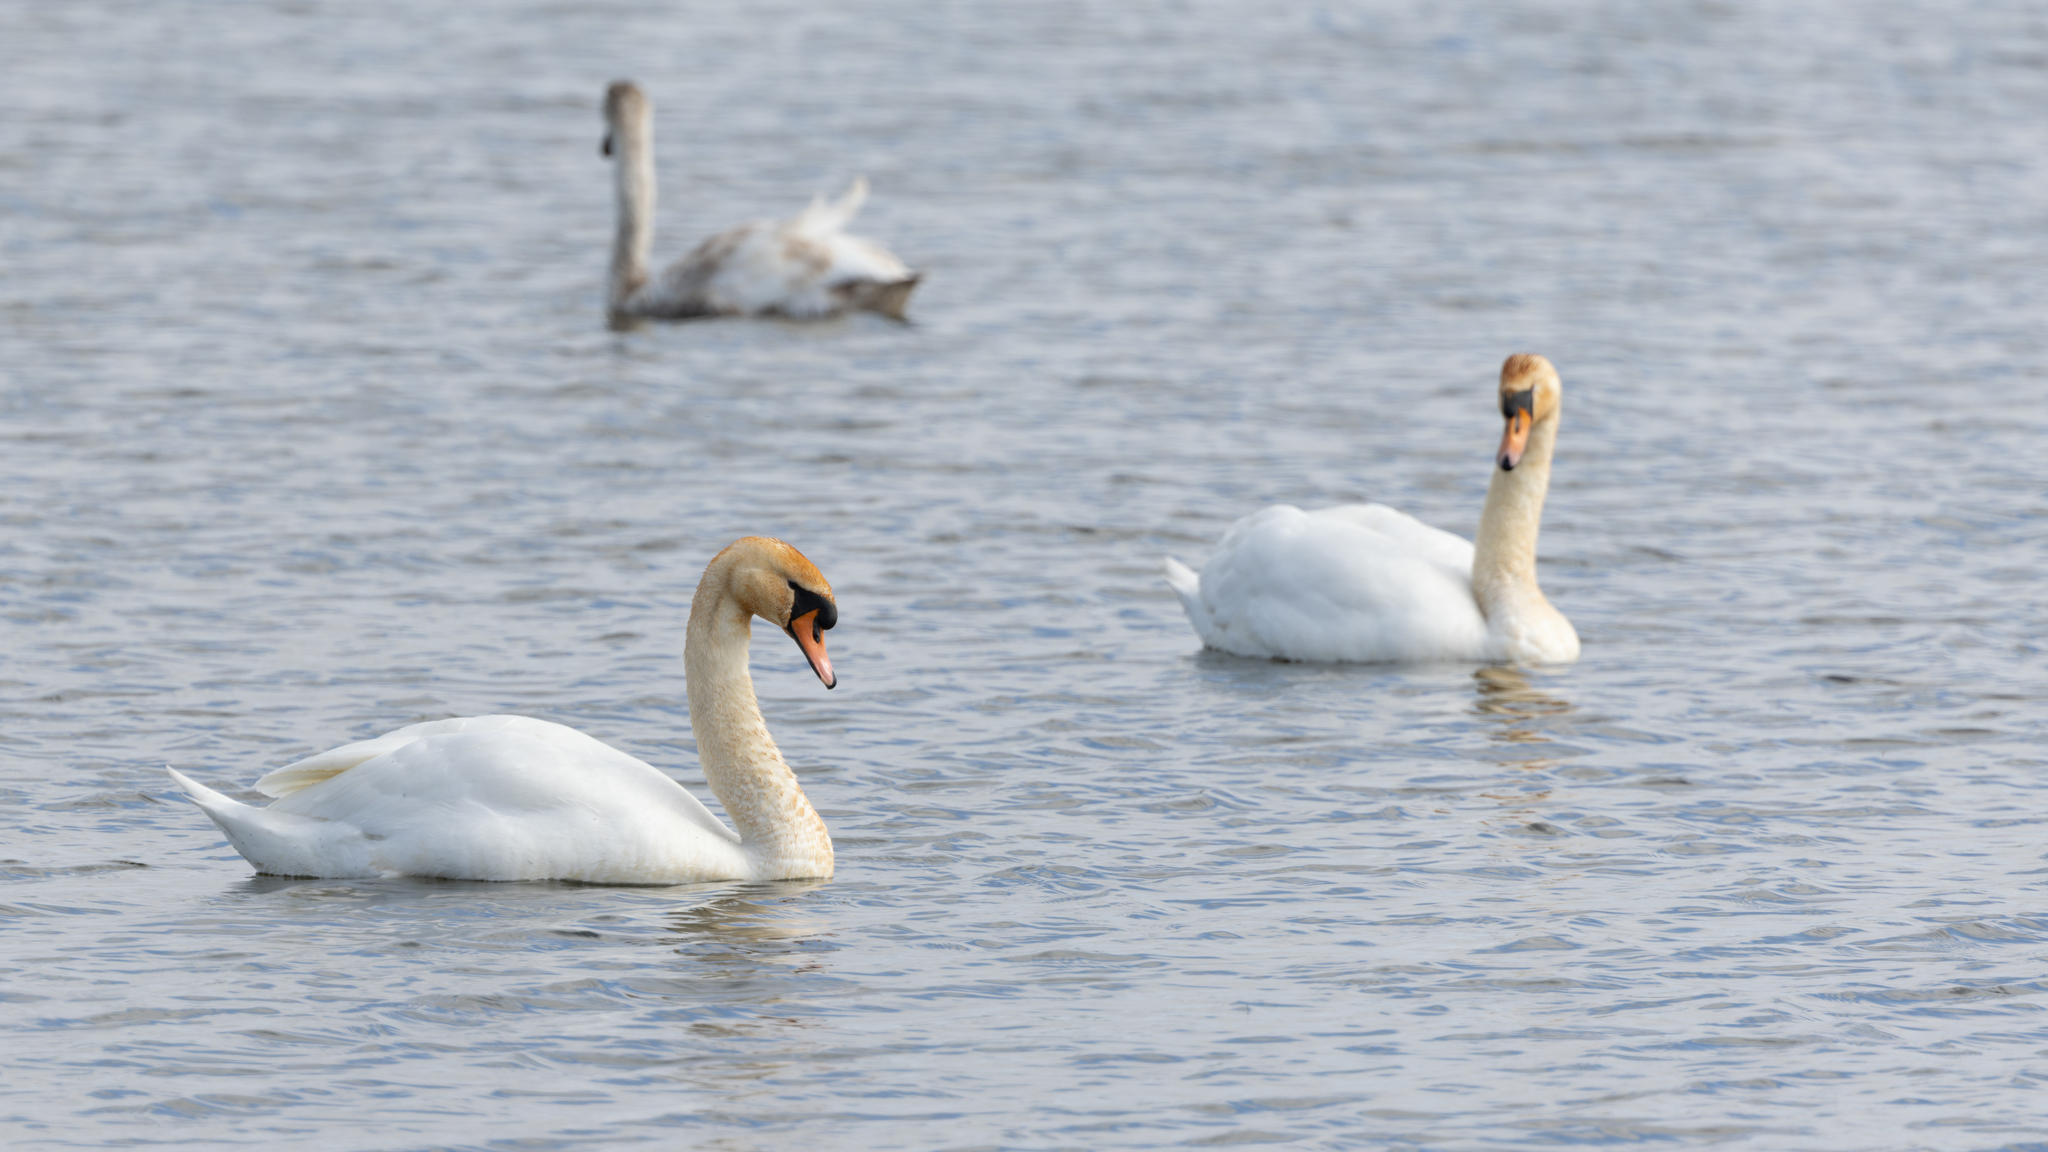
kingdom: Animalia
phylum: Chordata
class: Aves
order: Anseriformes
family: Anatidae
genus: Cygnus
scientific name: Cygnus olor
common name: Mute swan
